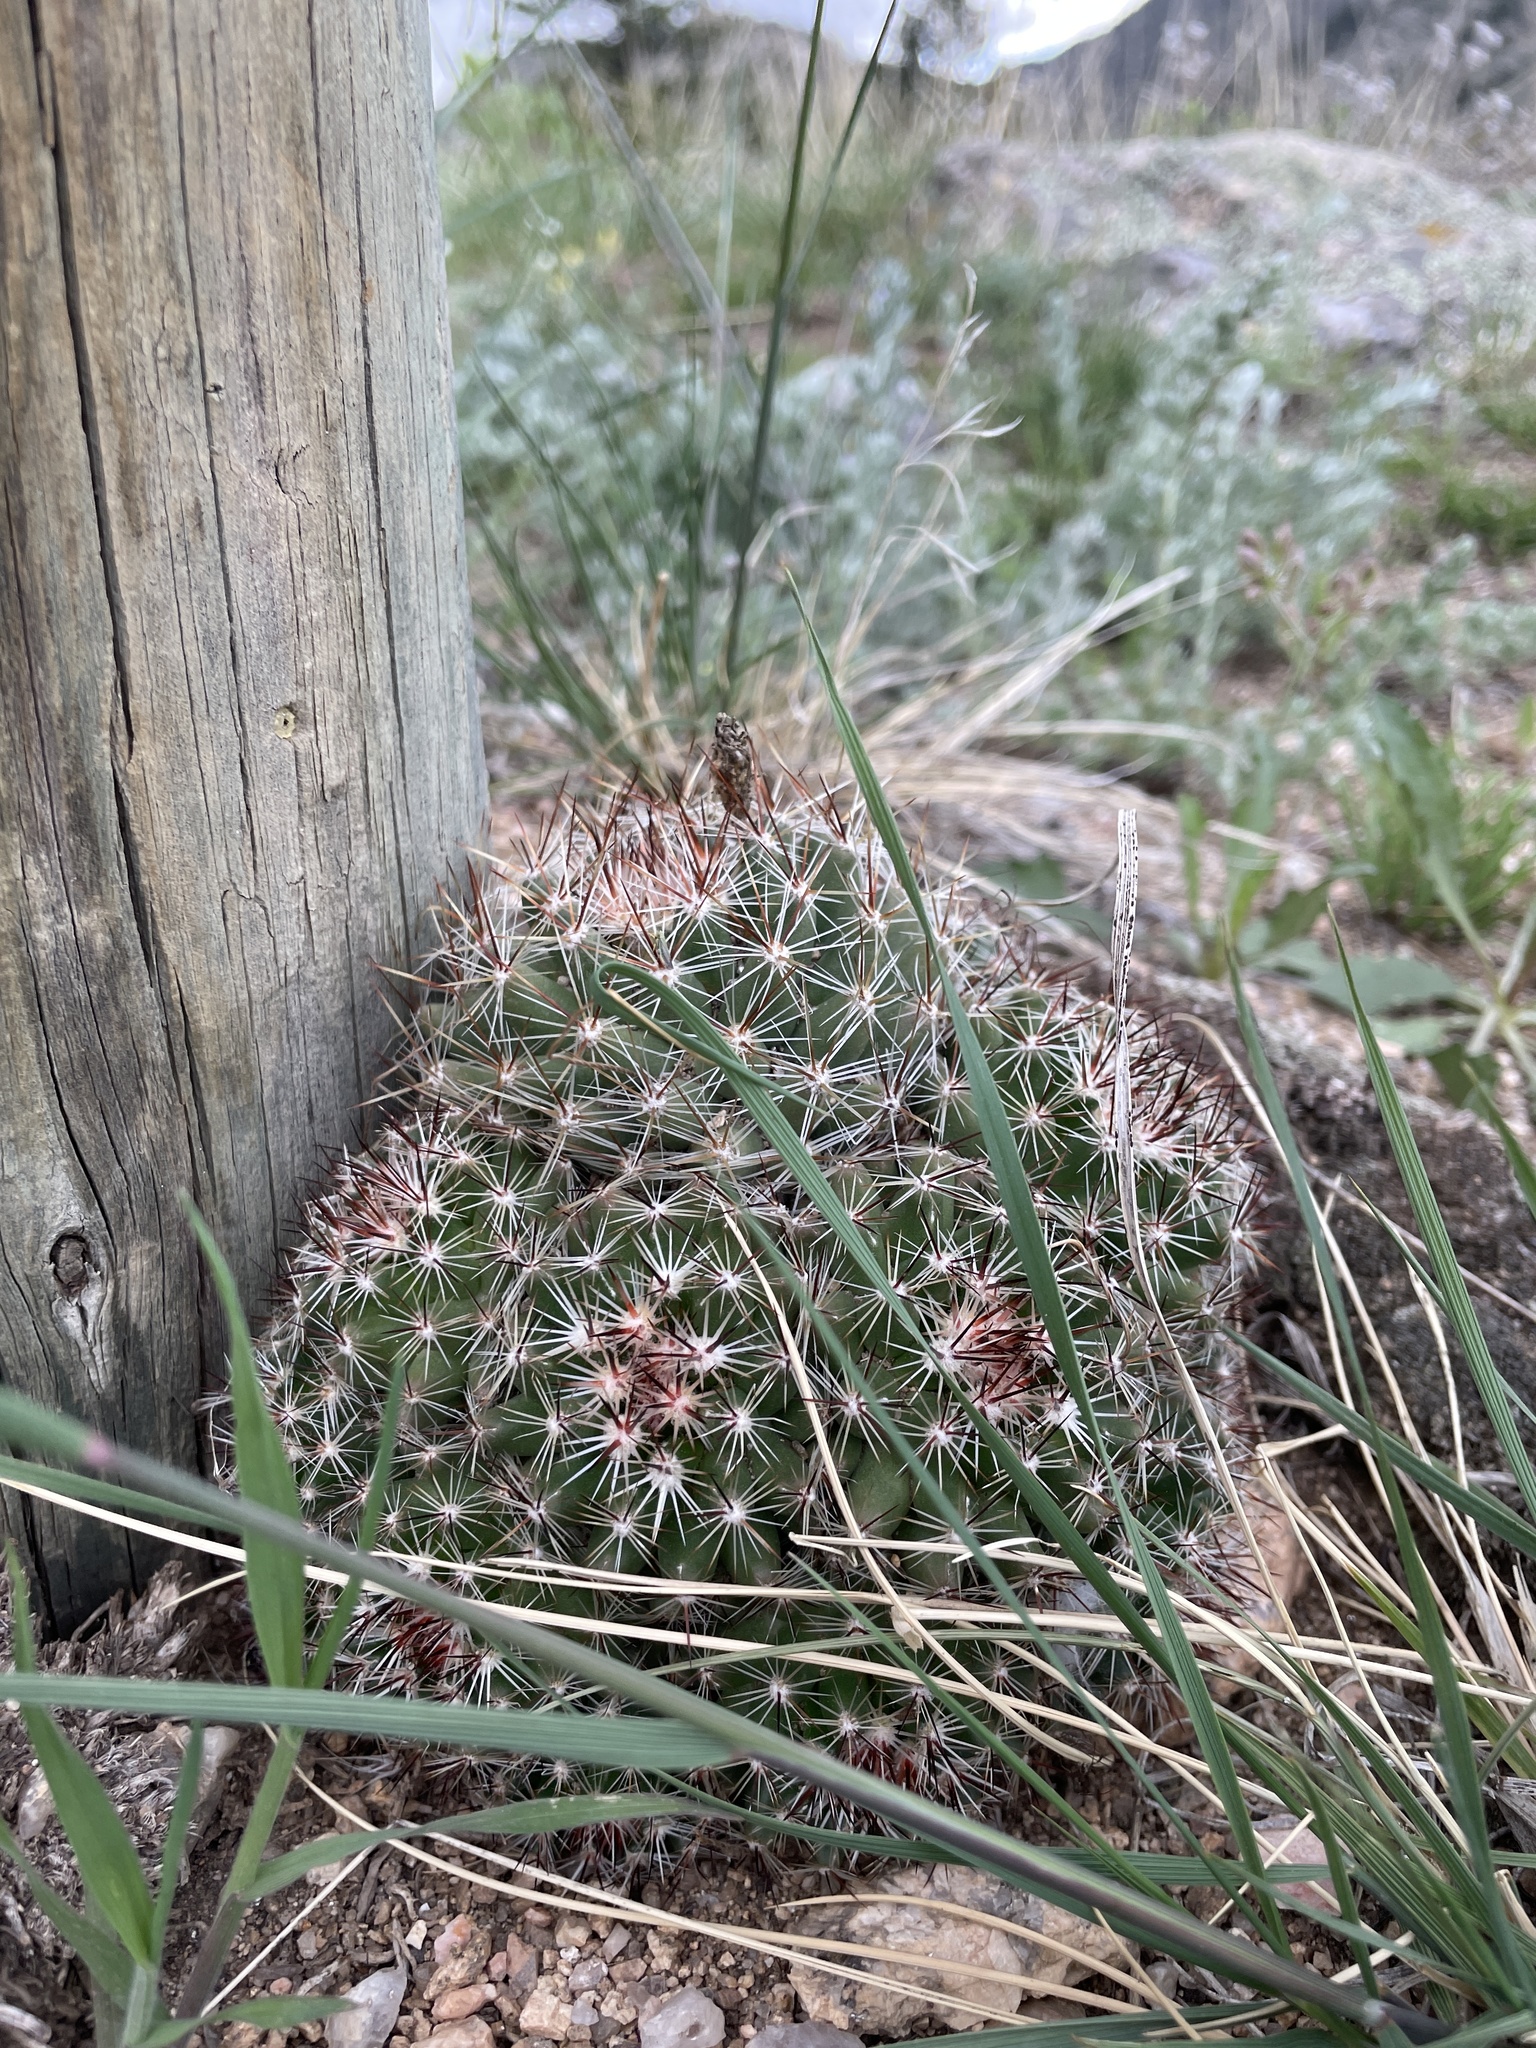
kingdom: Plantae
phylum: Tracheophyta
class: Magnoliopsida
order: Caryophyllales
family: Cactaceae
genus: Pelecyphora
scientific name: Pelecyphora vivipara
